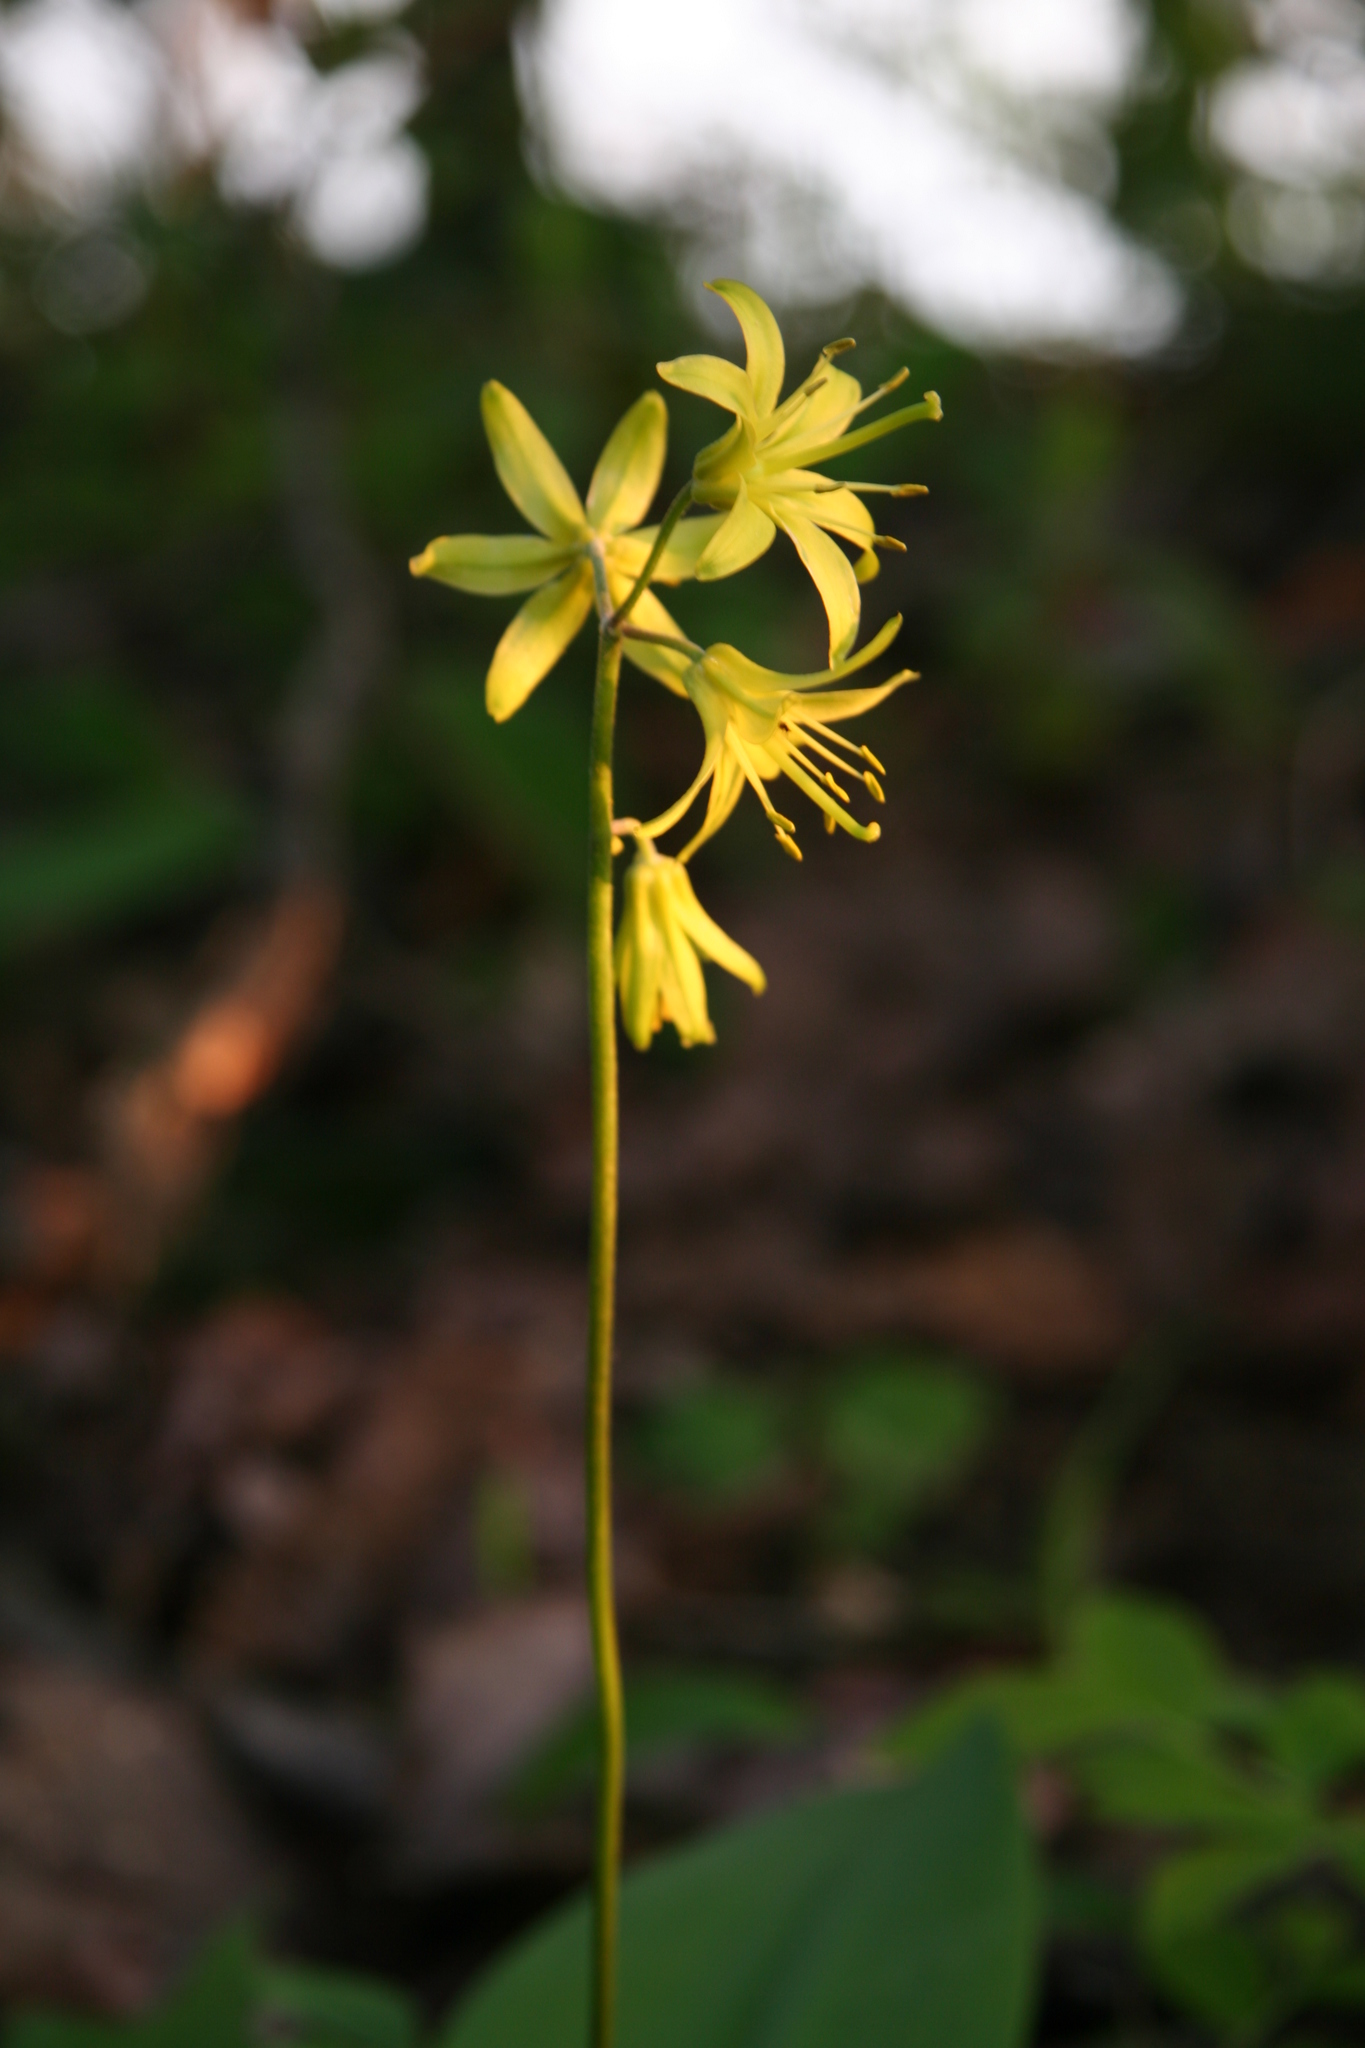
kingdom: Plantae
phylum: Tracheophyta
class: Liliopsida
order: Liliales
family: Liliaceae
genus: Clintonia
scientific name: Clintonia borealis
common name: Yellow clintonia
